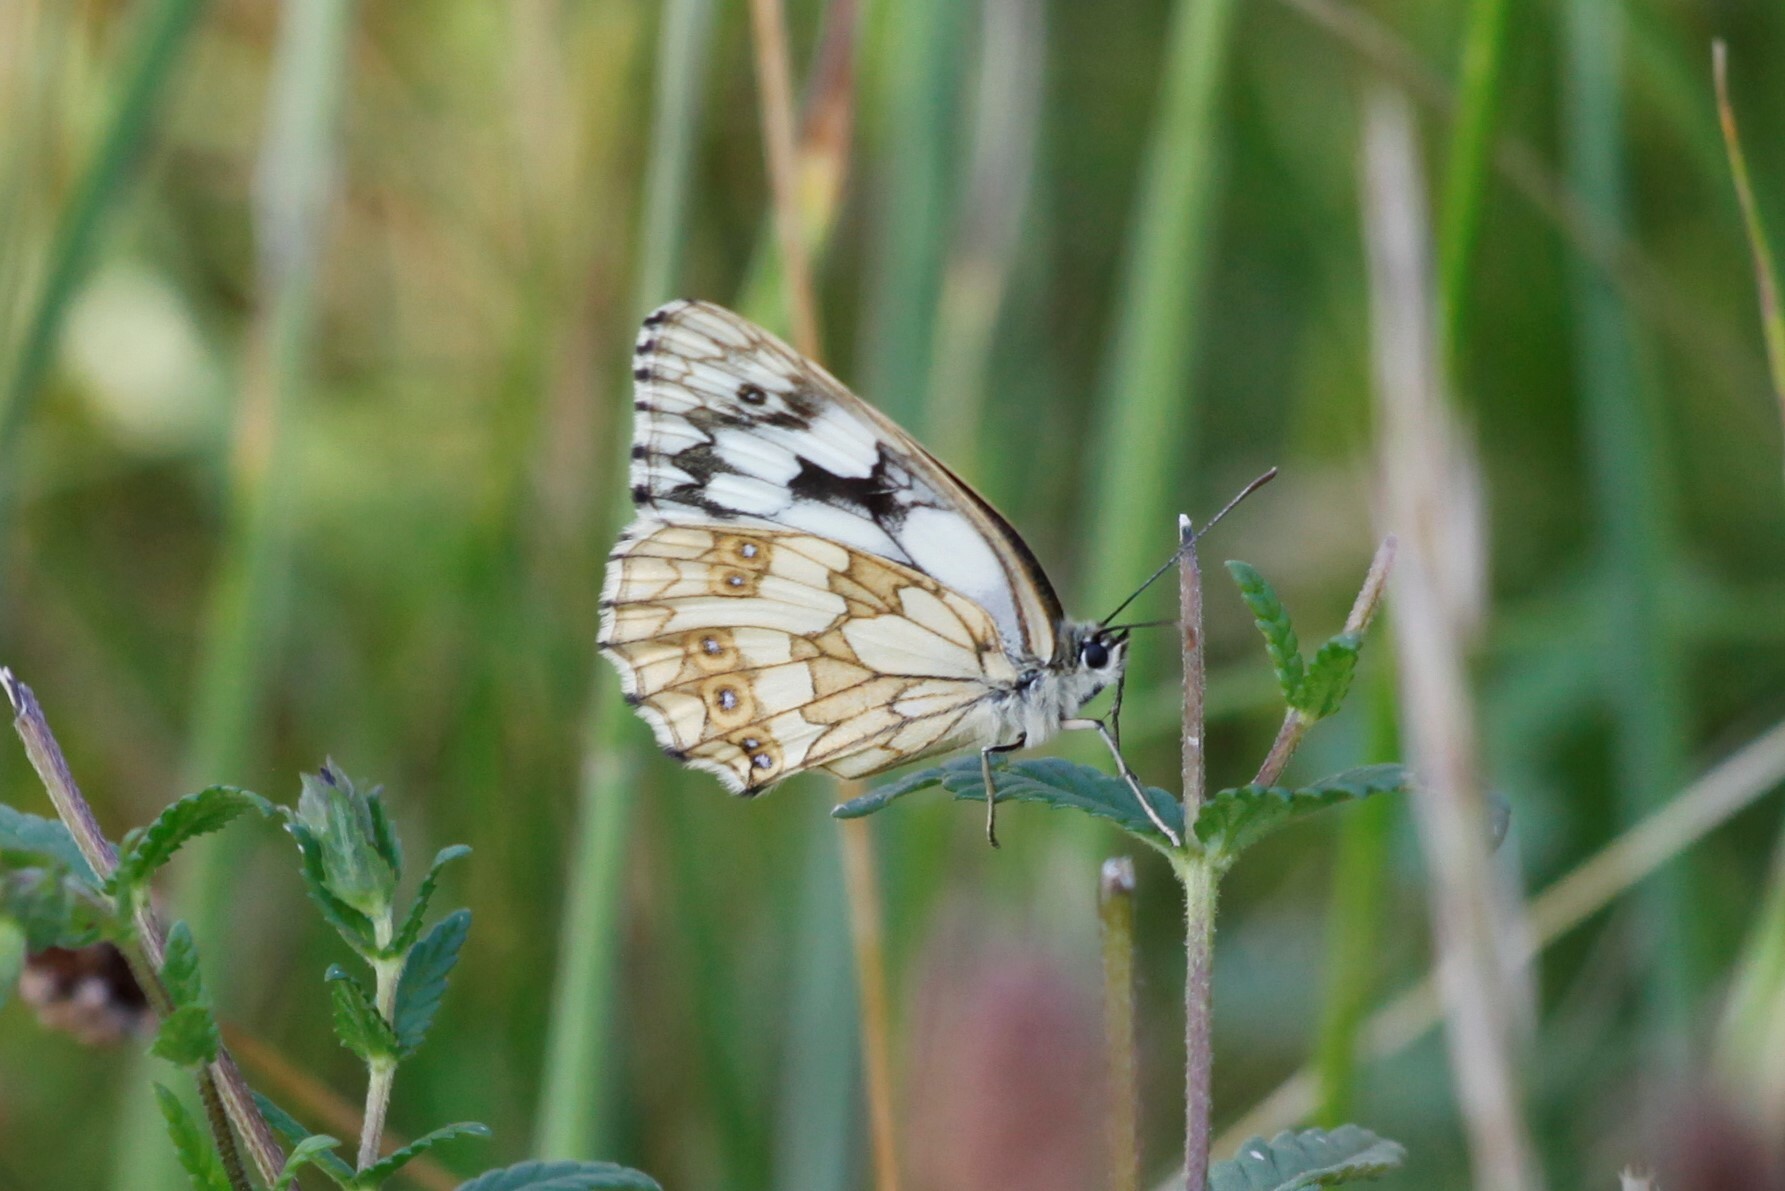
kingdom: Animalia
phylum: Arthropoda
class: Insecta
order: Lepidoptera
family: Nymphalidae
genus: Melanargia
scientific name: Melanargia galathea
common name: Marbled white
